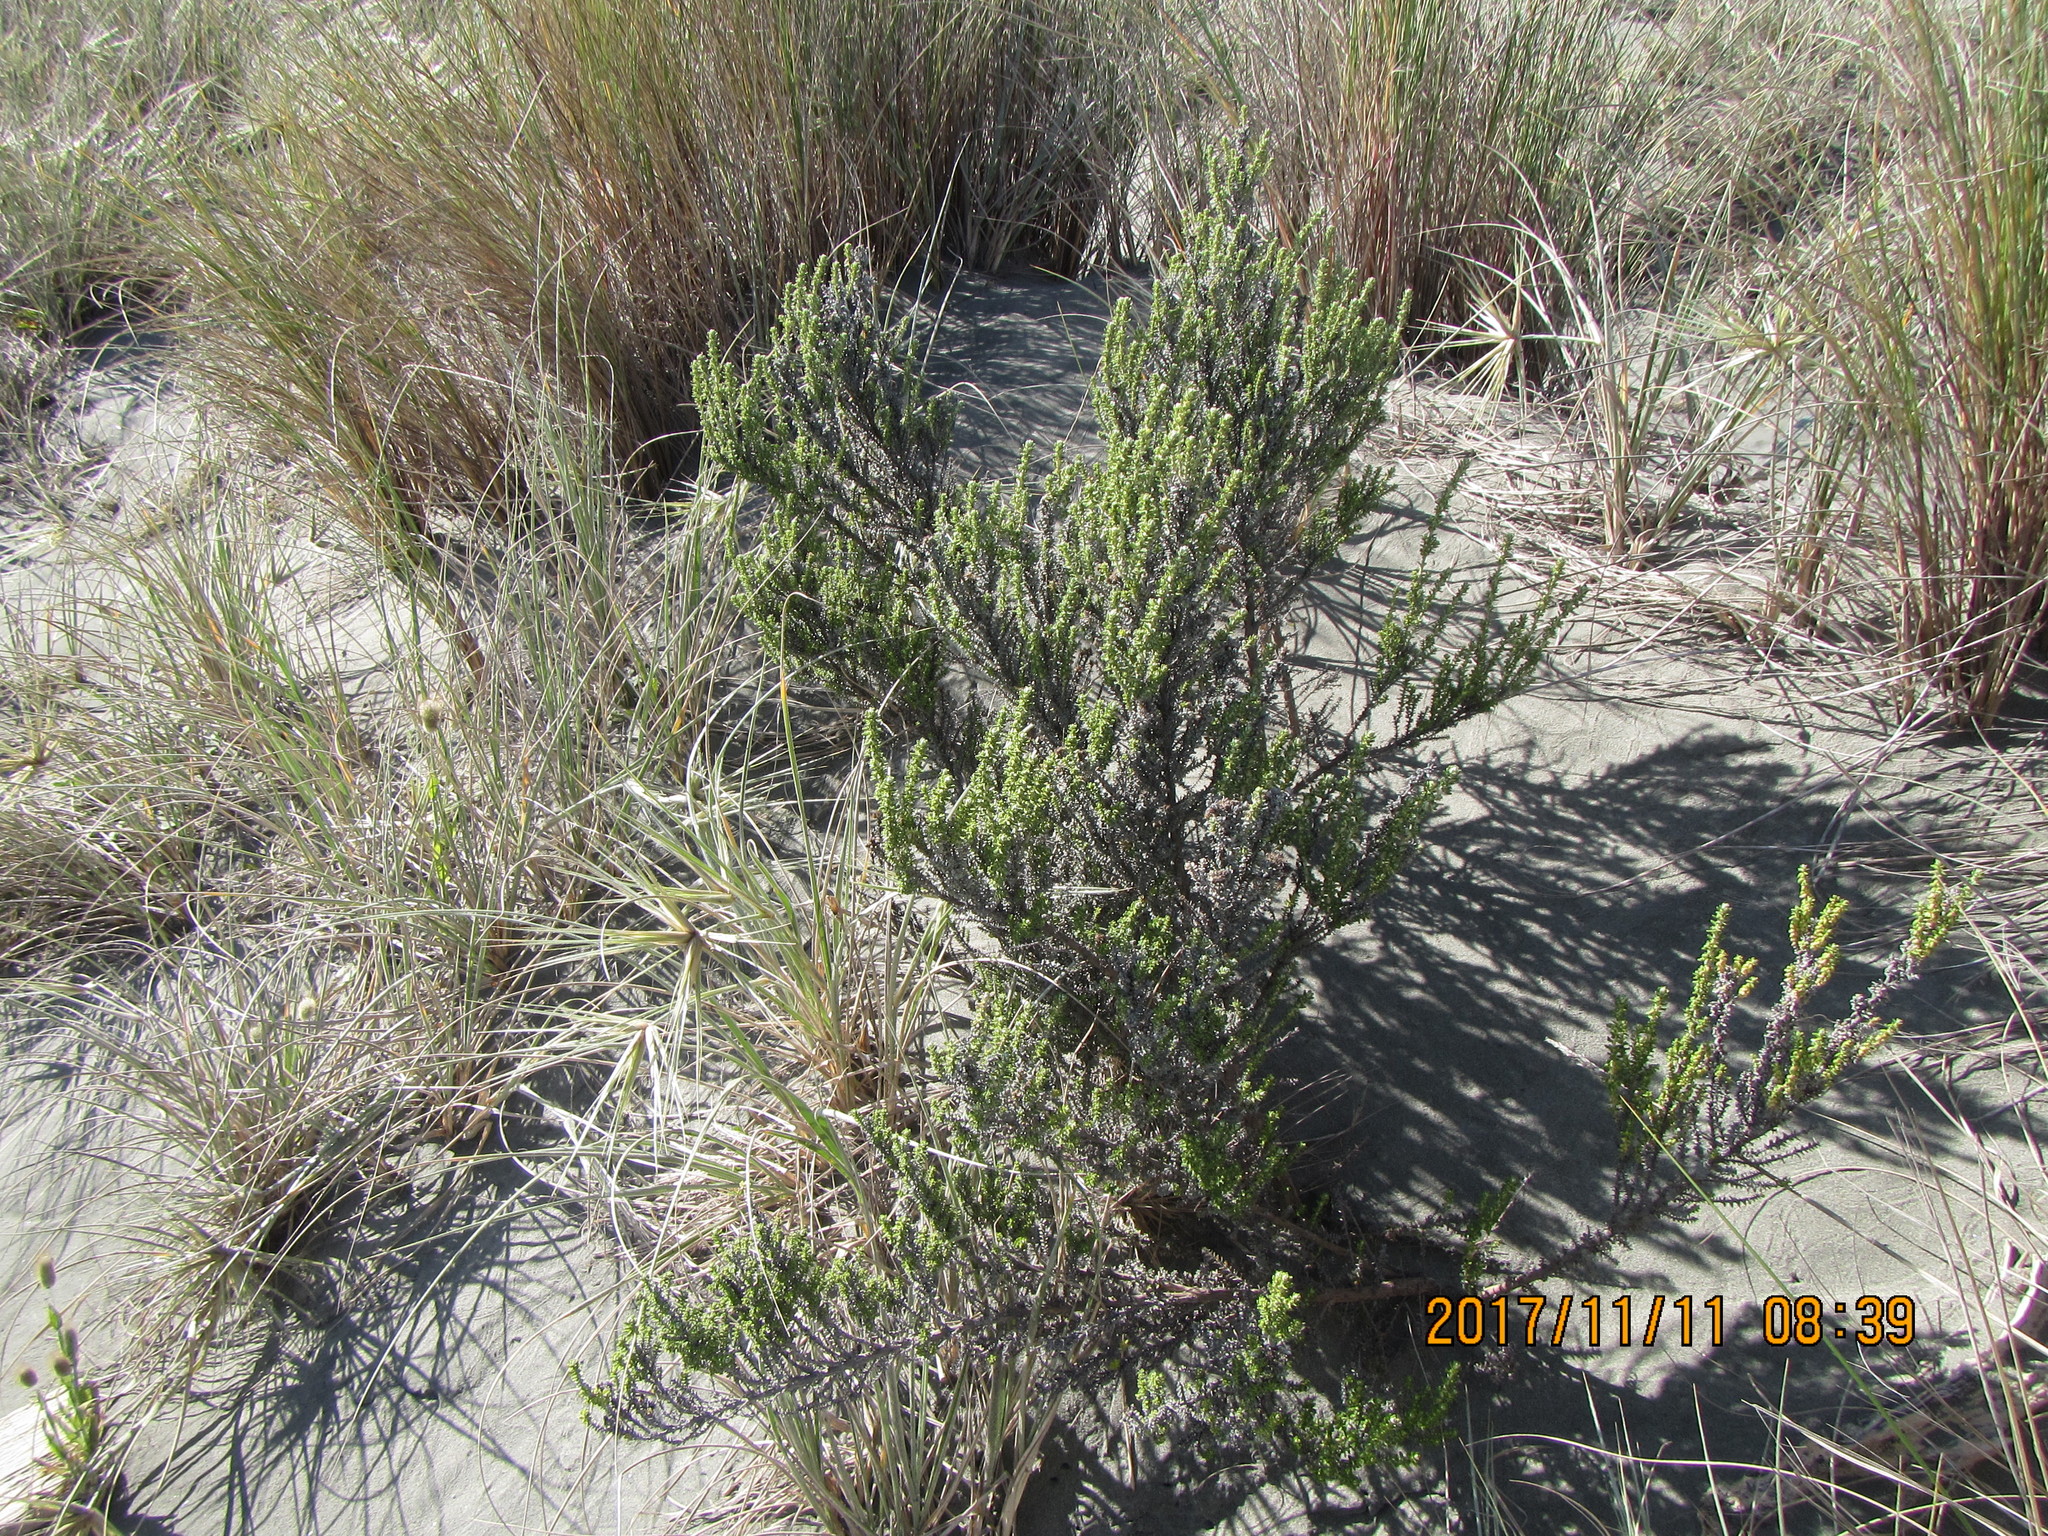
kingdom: Plantae
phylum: Tracheophyta
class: Magnoliopsida
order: Asterales
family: Asteraceae
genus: Ozothamnus
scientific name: Ozothamnus leptophyllus
